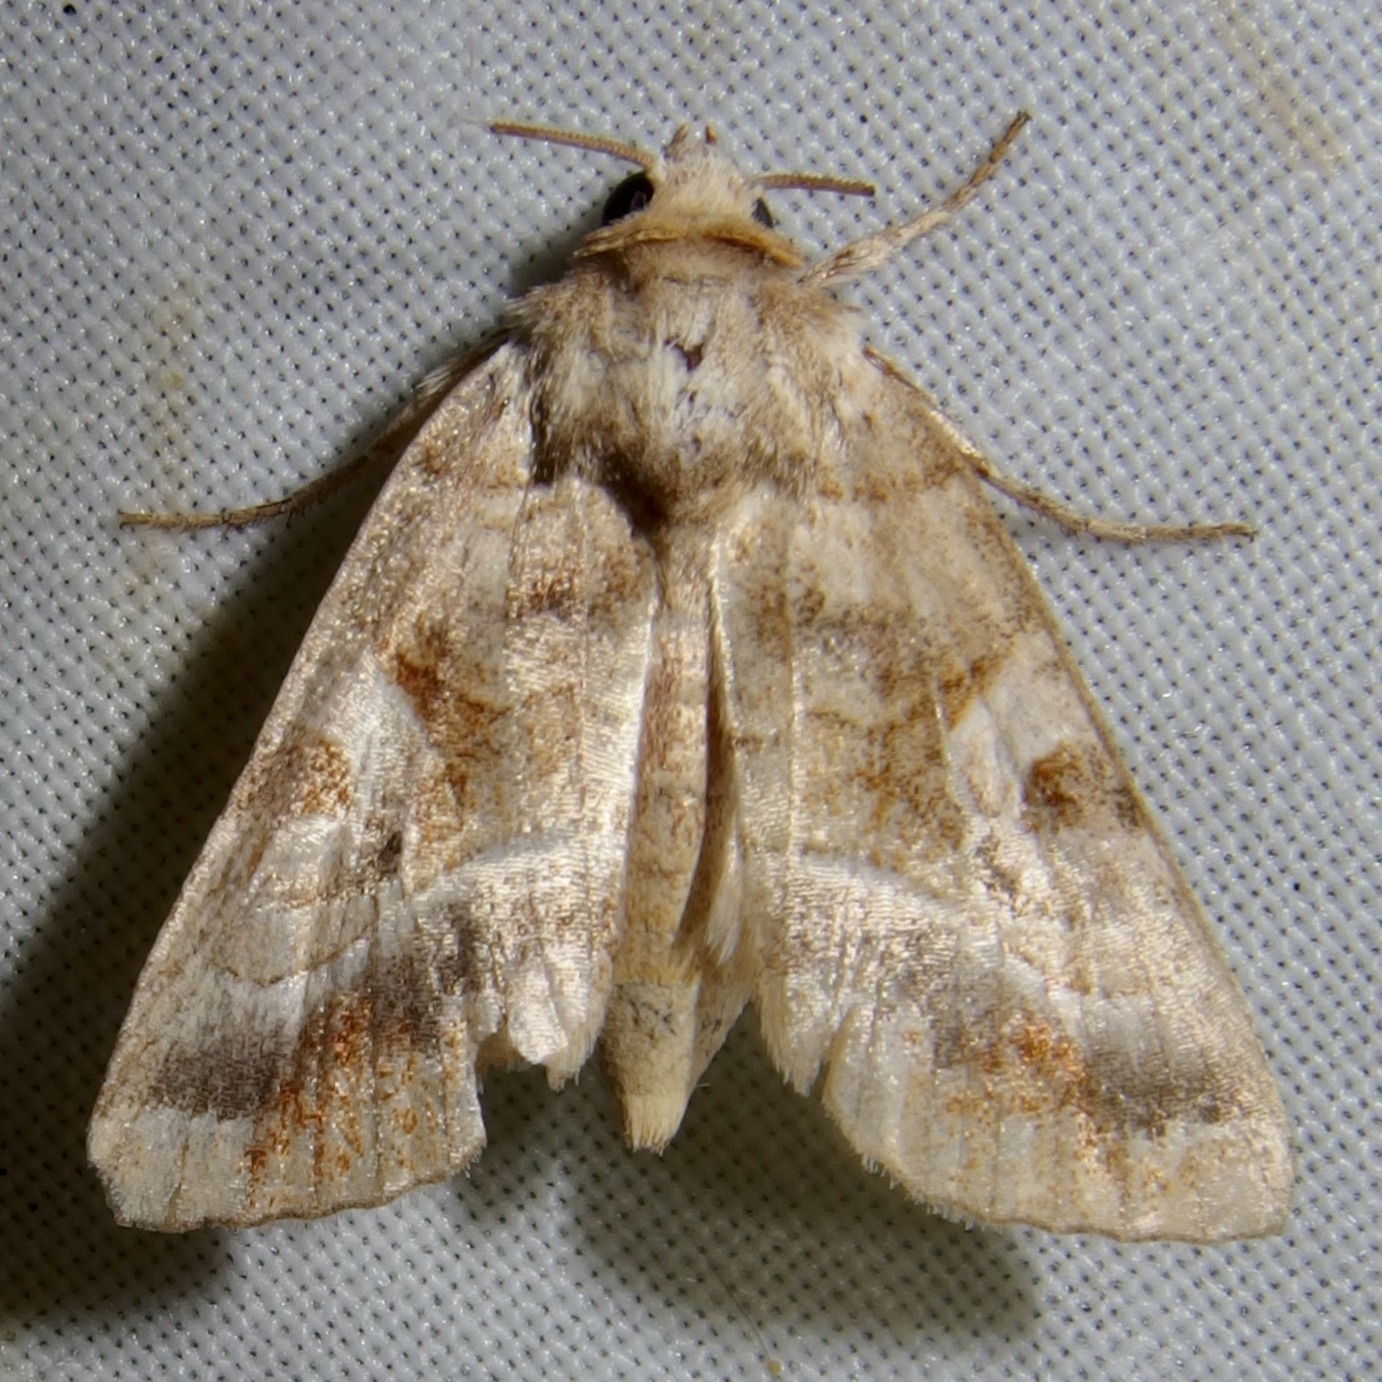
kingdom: Animalia
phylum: Arthropoda
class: Insecta
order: Lepidoptera
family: Noctuidae
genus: Hexorthodes
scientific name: Hexorthodes accurata
